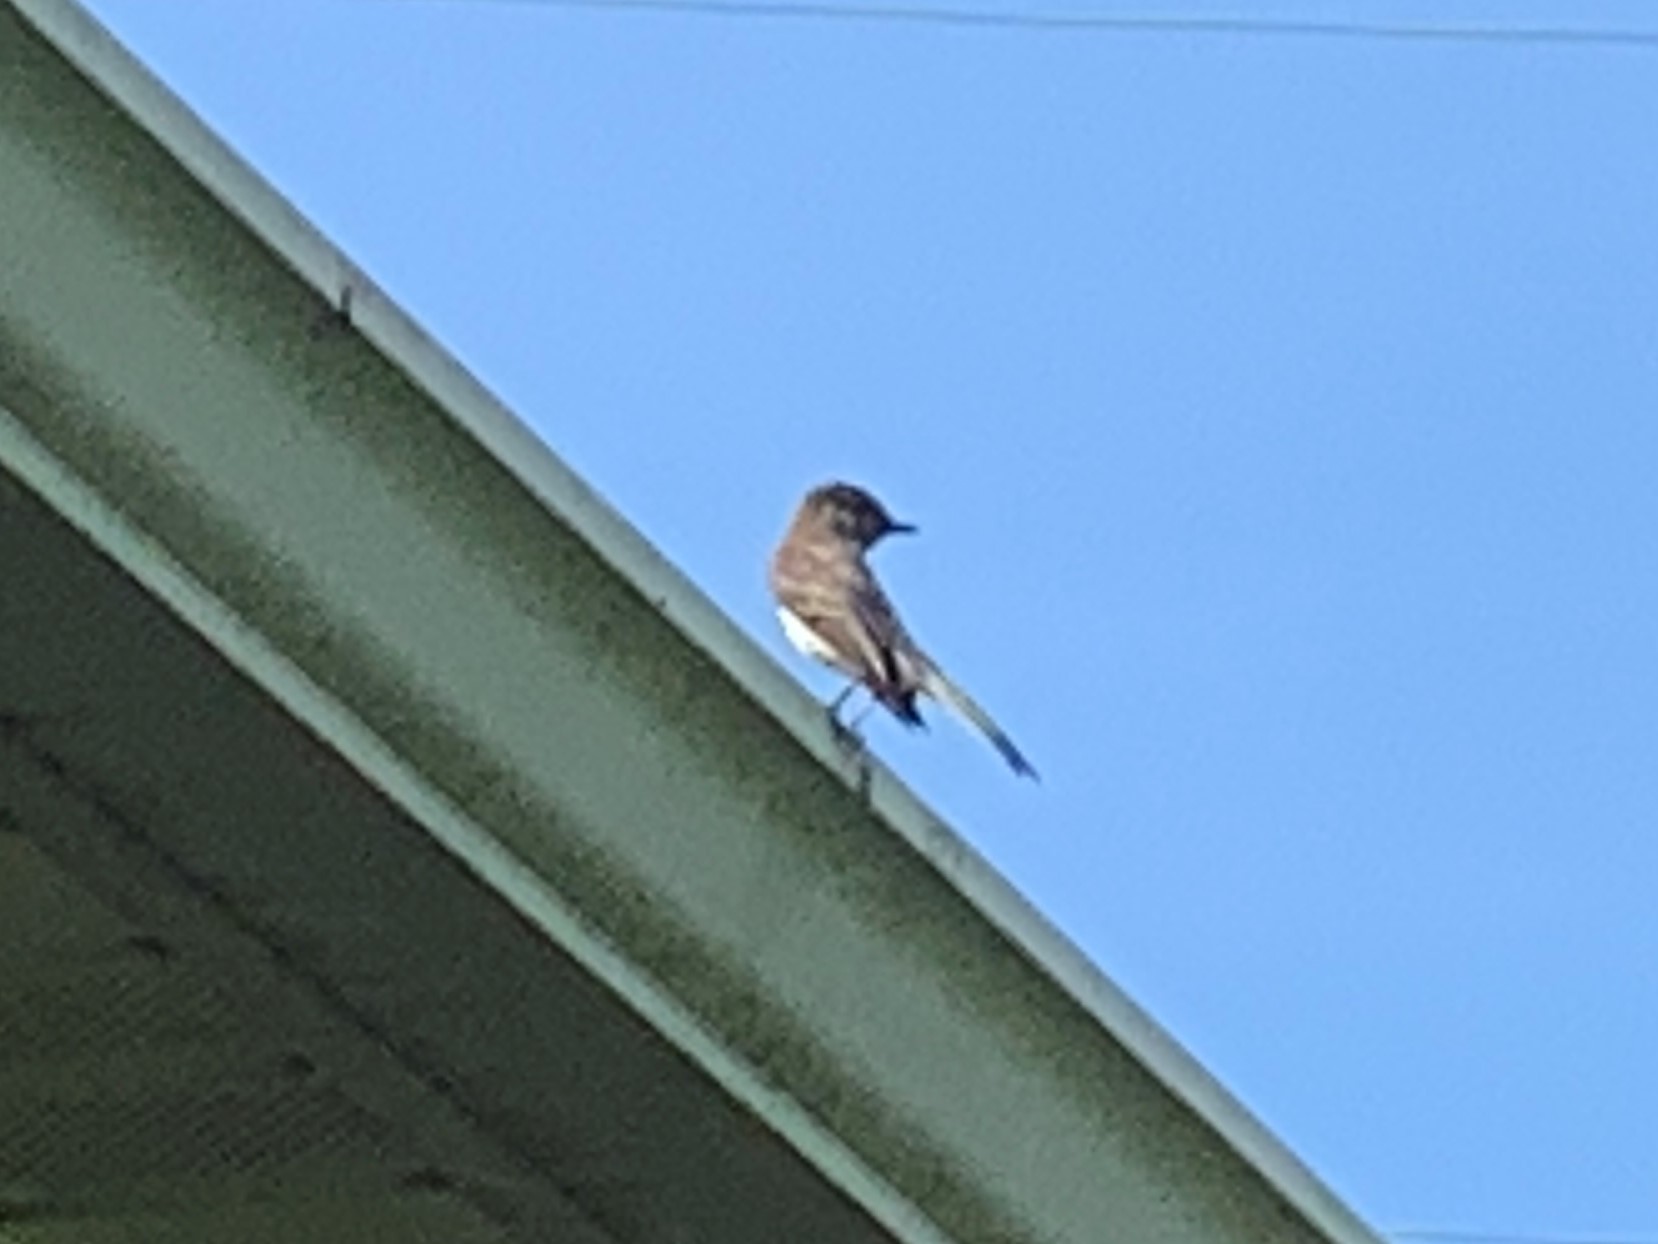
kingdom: Animalia
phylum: Chordata
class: Aves
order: Passeriformes
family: Tyrannidae
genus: Sayornis
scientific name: Sayornis phoebe
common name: Eastern phoebe
